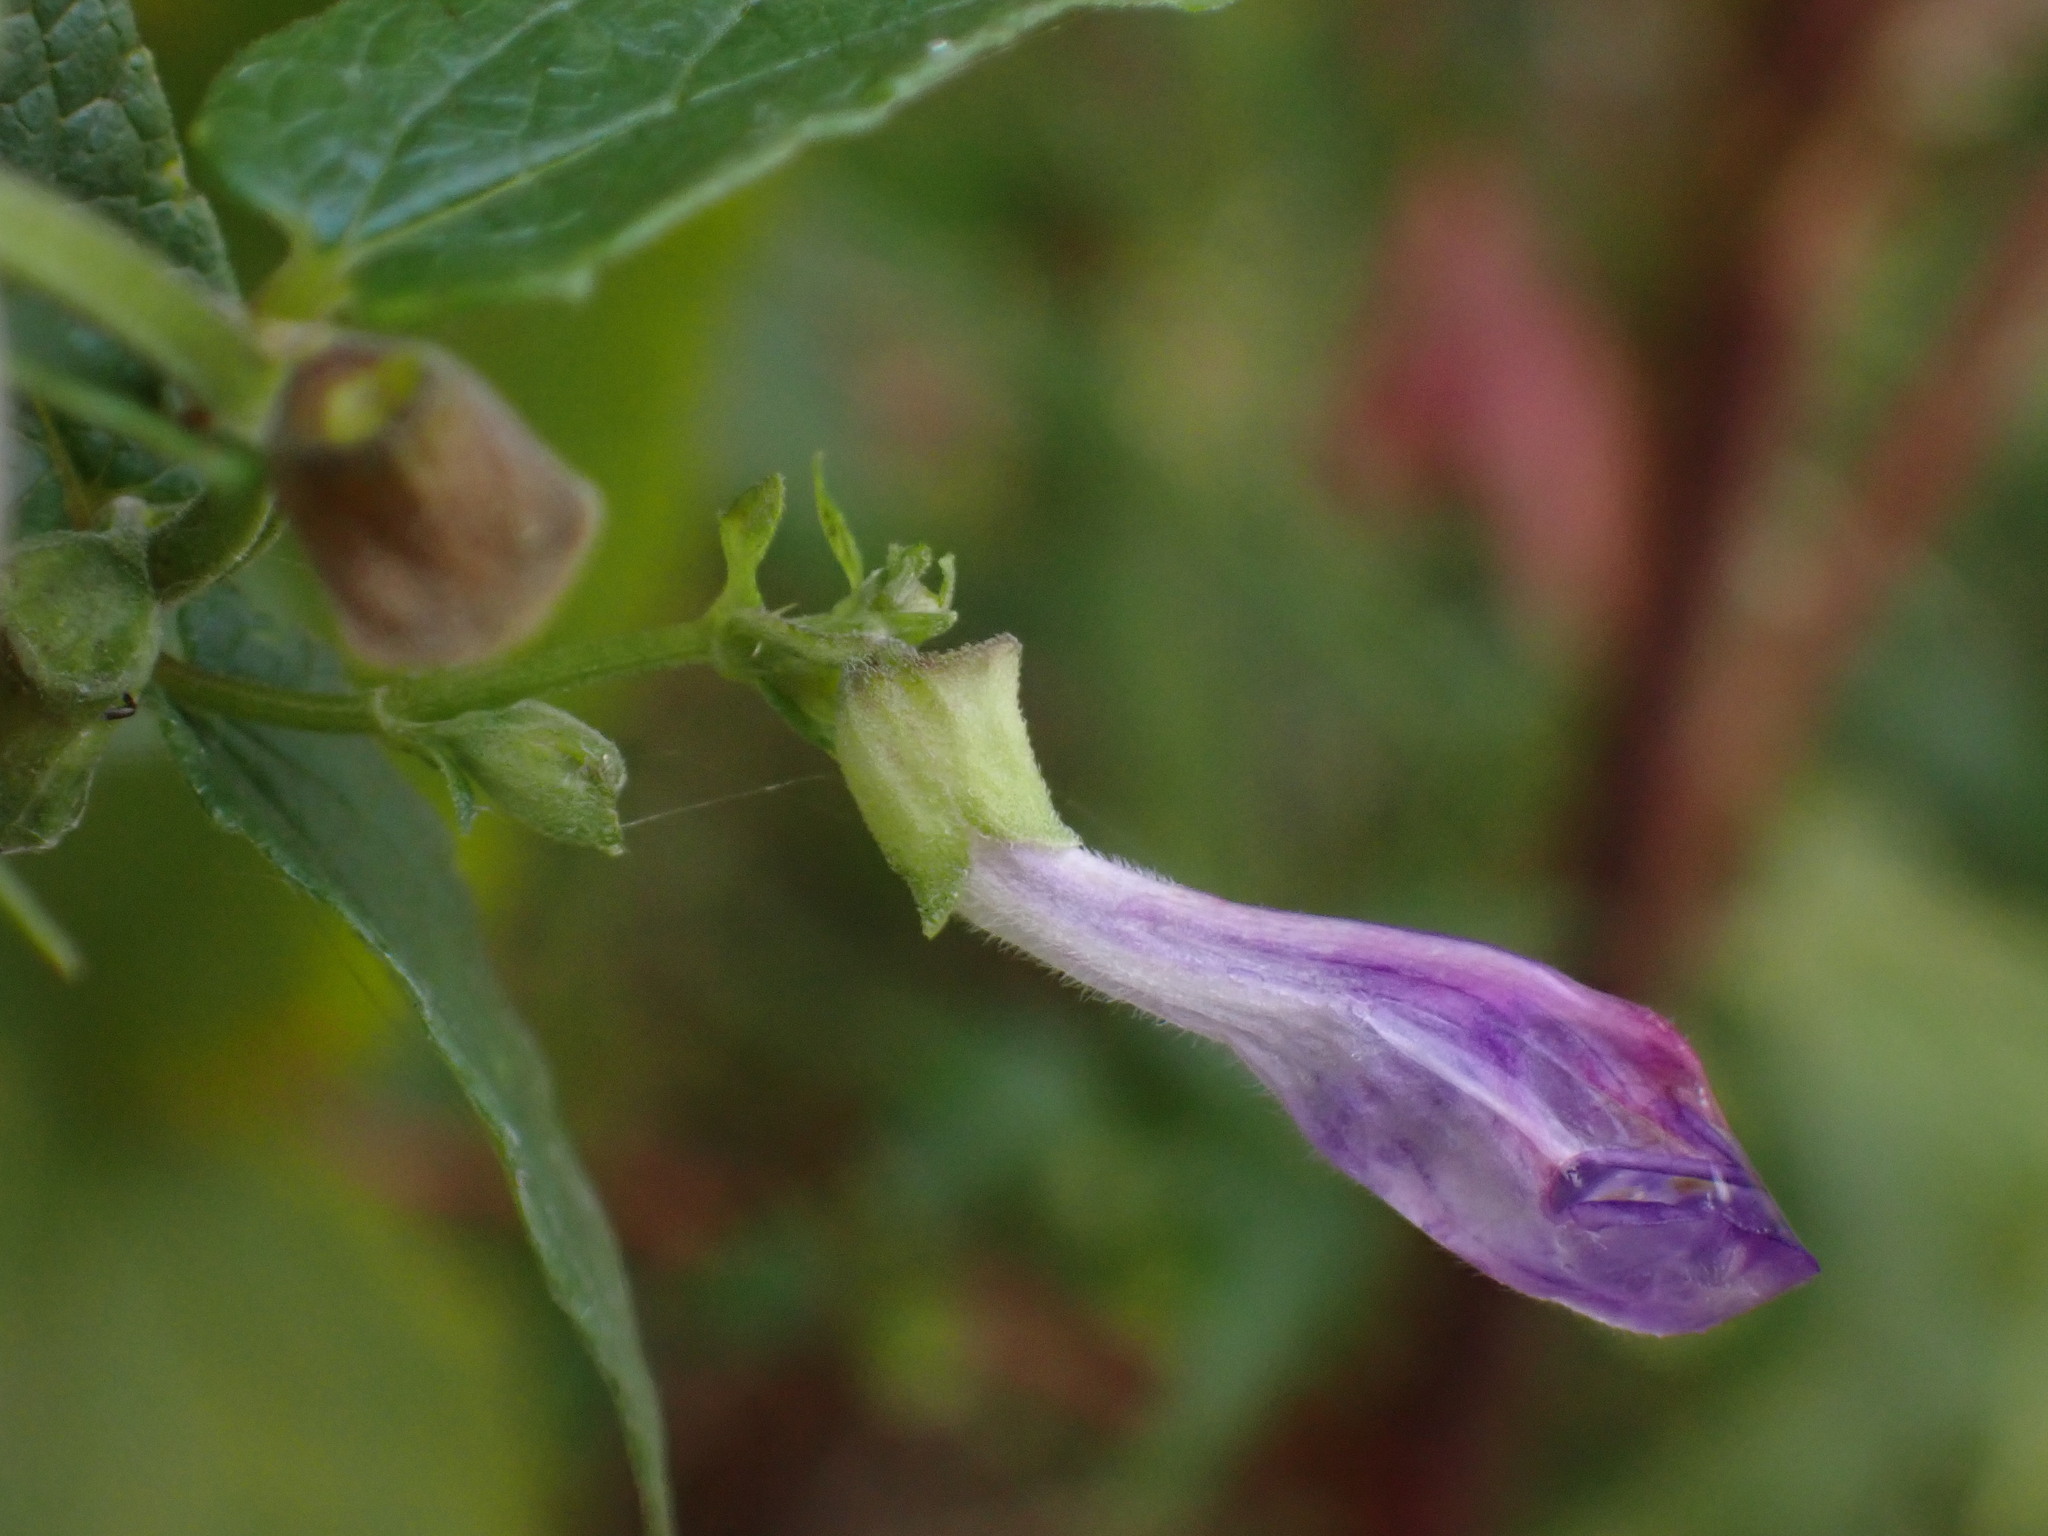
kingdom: Plantae
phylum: Tracheophyta
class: Magnoliopsida
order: Lamiales
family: Lamiaceae
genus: Scutellaria
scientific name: Scutellaria galericulata
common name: Skullcap
